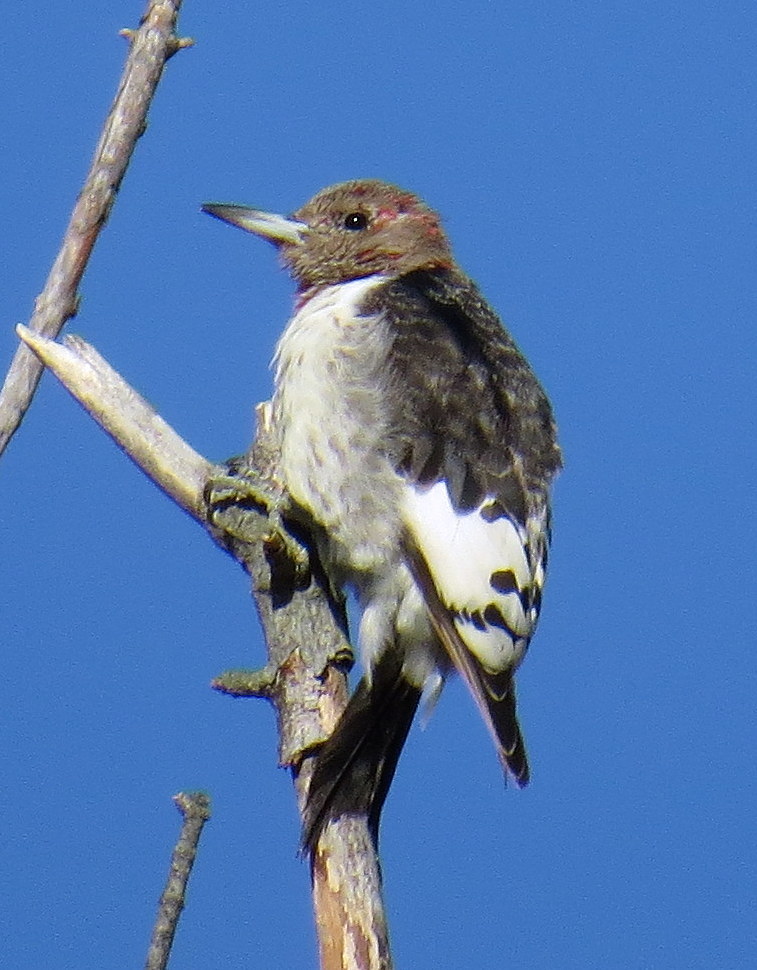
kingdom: Animalia
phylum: Chordata
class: Aves
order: Piciformes
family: Picidae
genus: Melanerpes
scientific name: Melanerpes erythrocephalus
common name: Red-headed woodpecker
